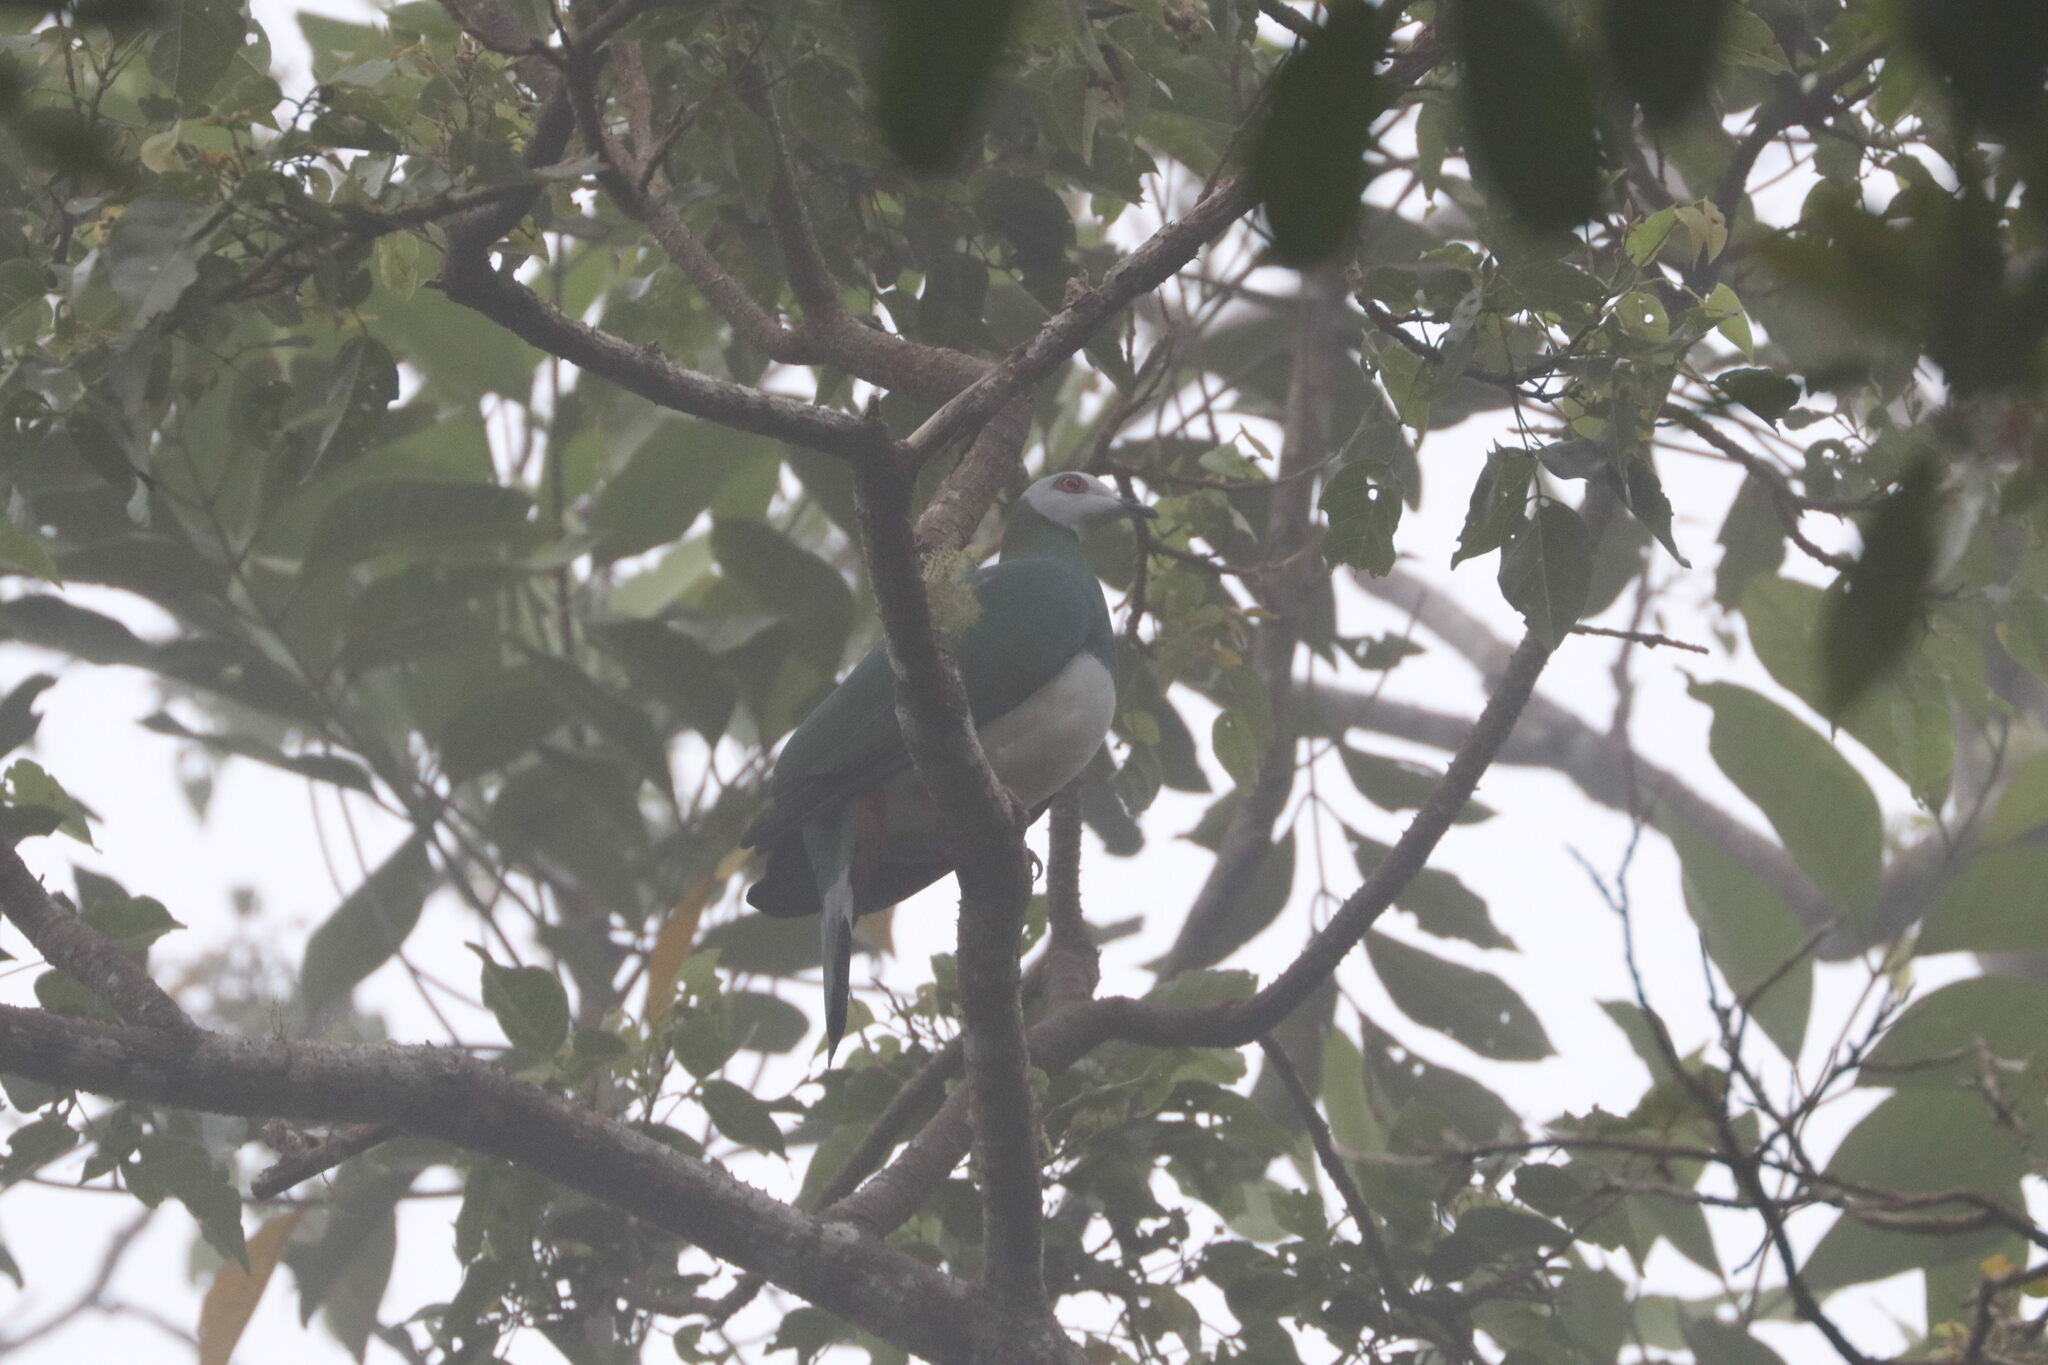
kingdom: Animalia
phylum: Chordata
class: Aves
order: Columbiformes
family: Columbidae
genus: Ducula
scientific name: Ducula forsteni
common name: White-bellied imperial pigeon
